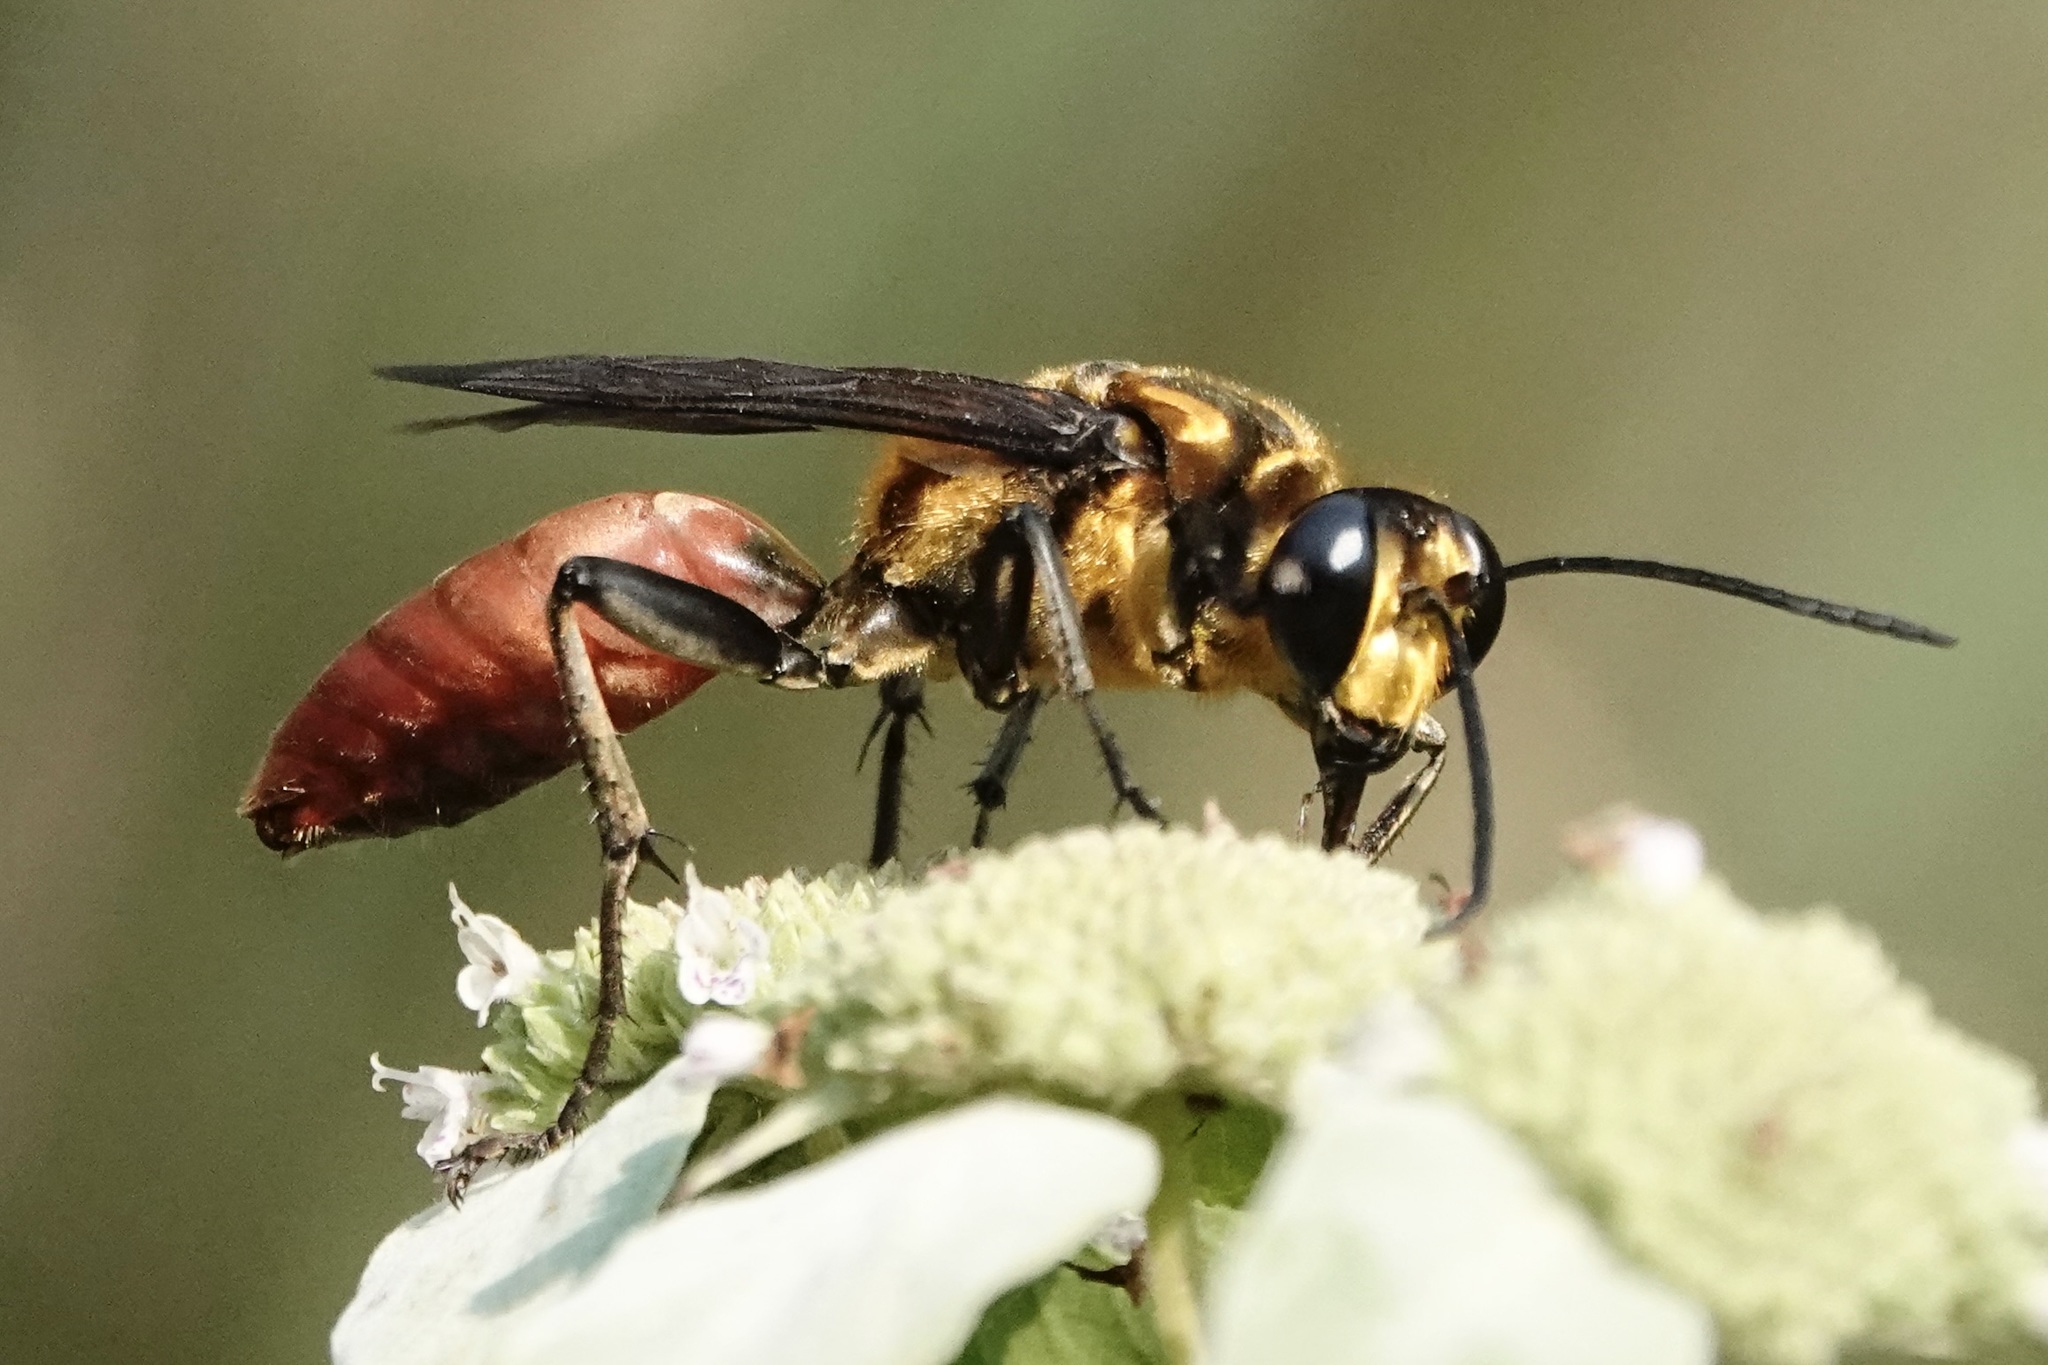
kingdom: Animalia
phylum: Arthropoda
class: Insecta
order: Hymenoptera
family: Sphecidae
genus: Sphex
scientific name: Sphex habenus
